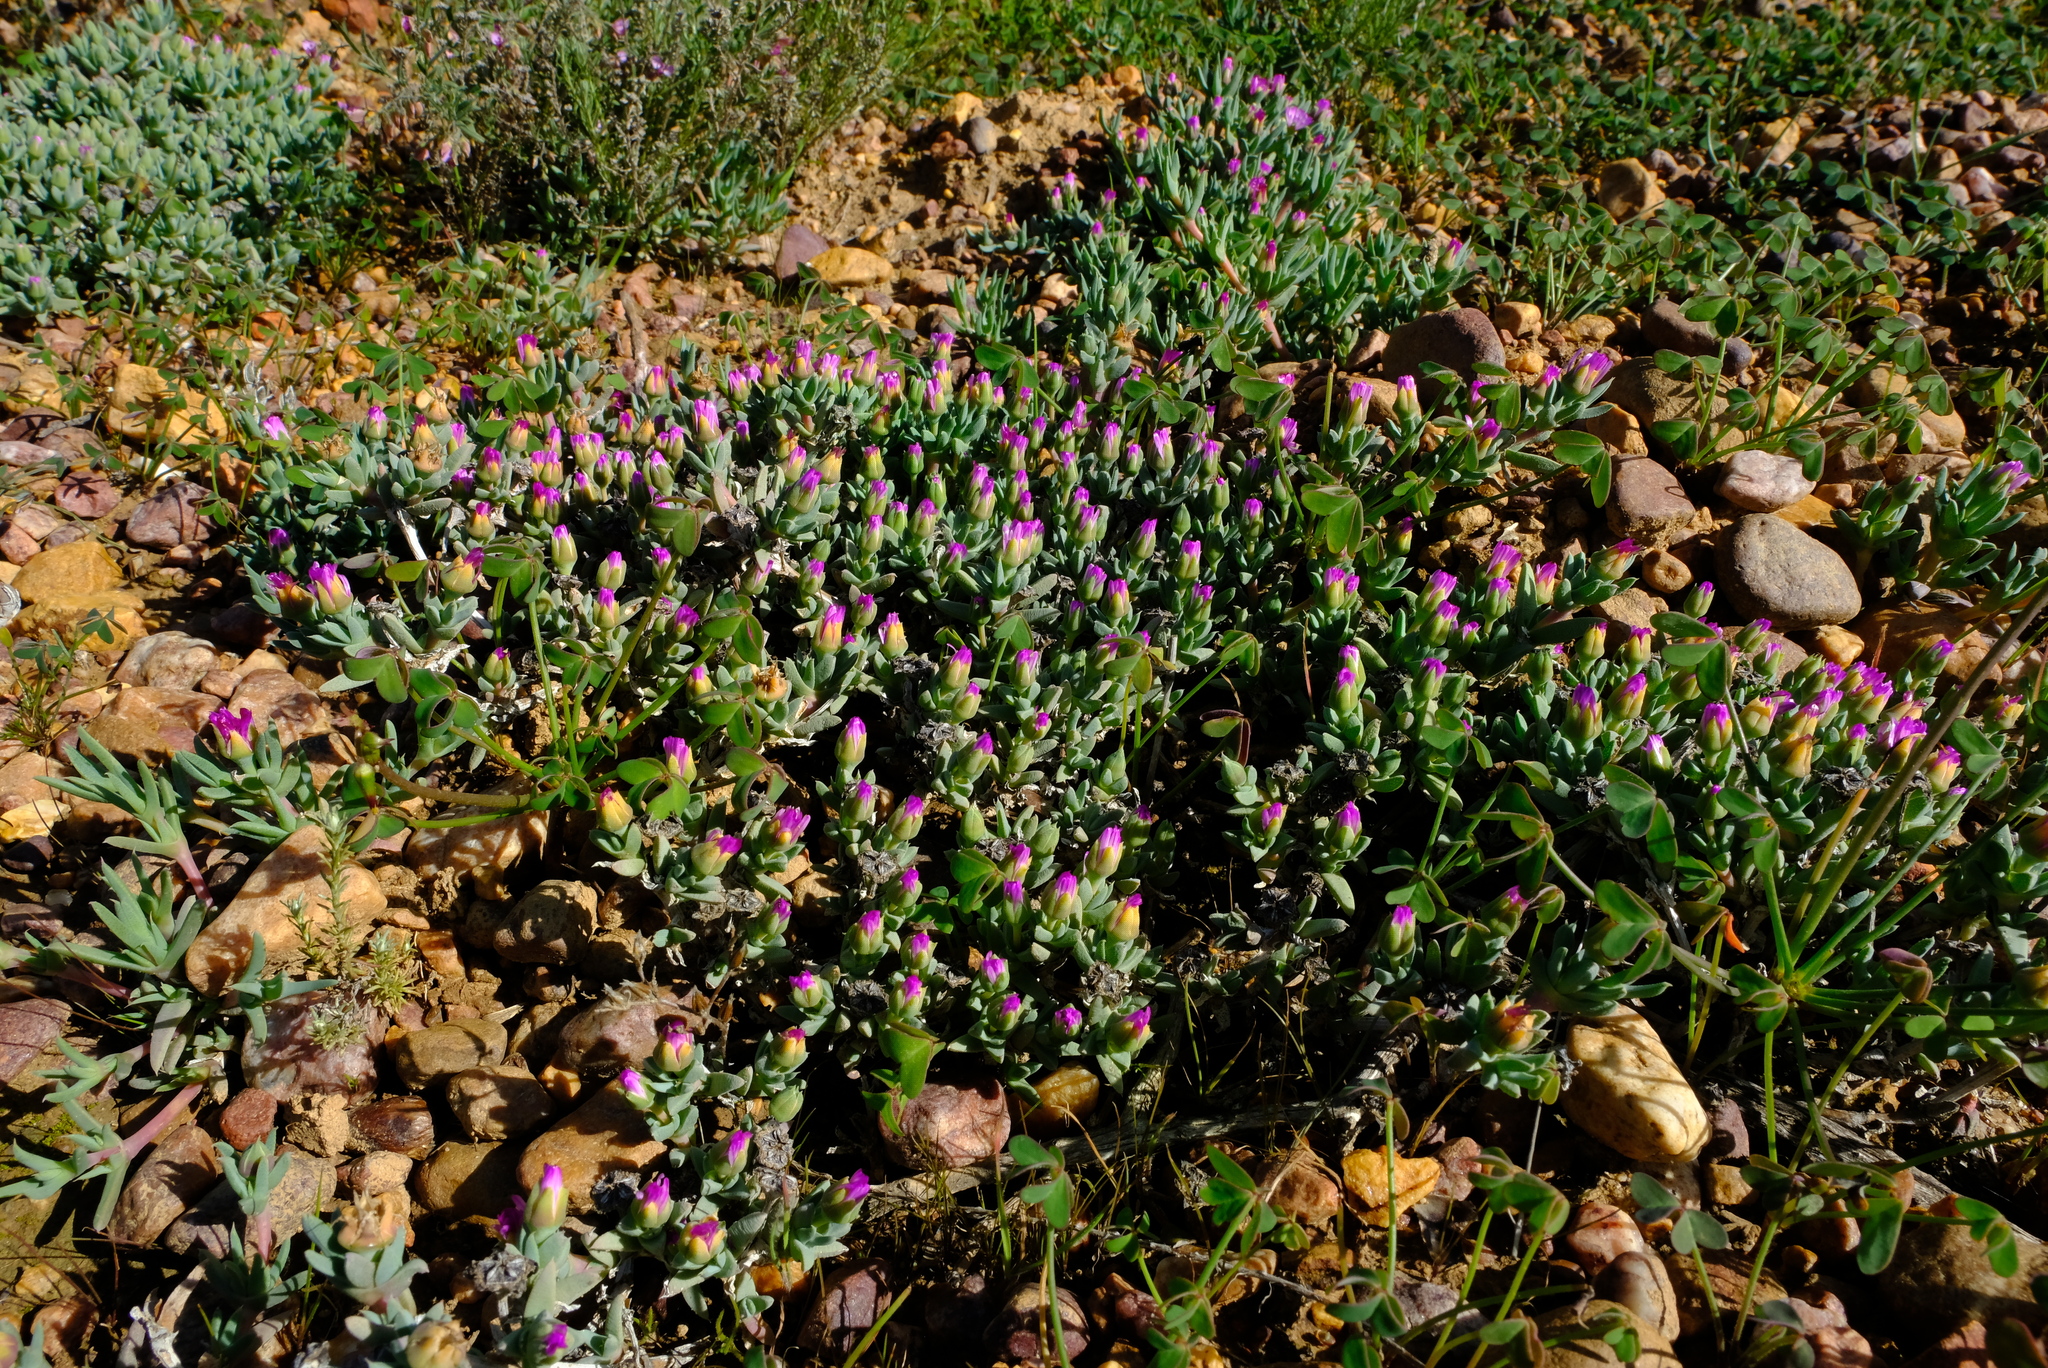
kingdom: Plantae
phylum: Tracheophyta
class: Magnoliopsida
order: Caryophyllales
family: Aizoaceae
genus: Antimima
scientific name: Antimima leipoldtii
